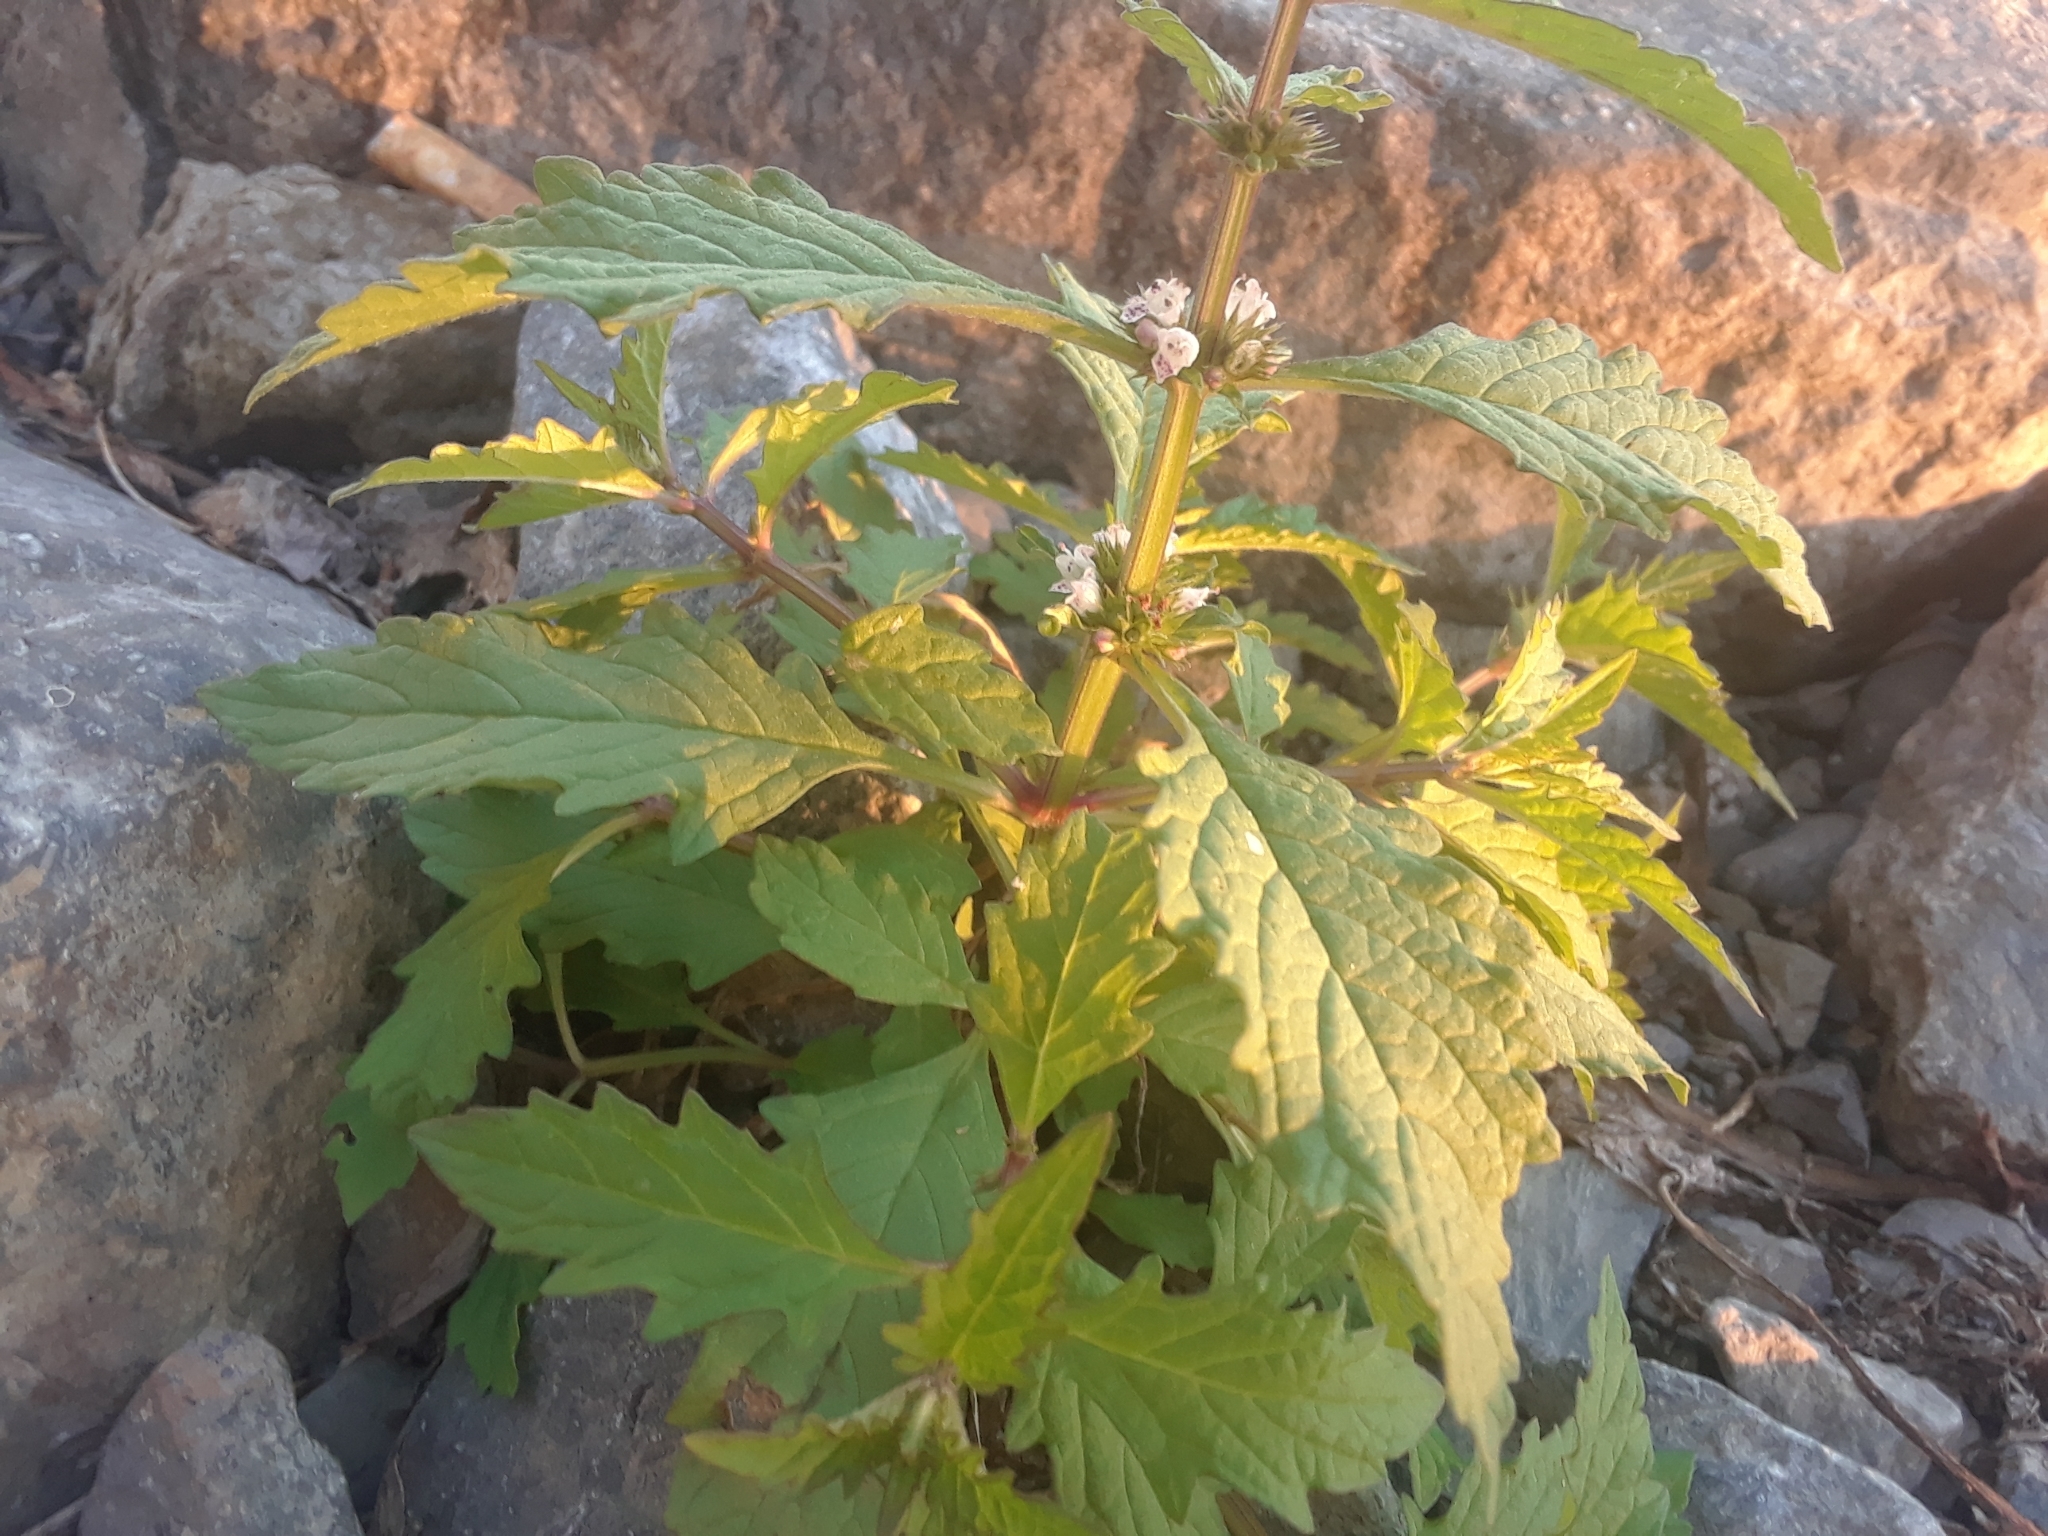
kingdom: Plantae
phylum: Tracheophyta
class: Magnoliopsida
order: Lamiales
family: Lamiaceae
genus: Lycopus
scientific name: Lycopus europaeus
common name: European bugleweed
